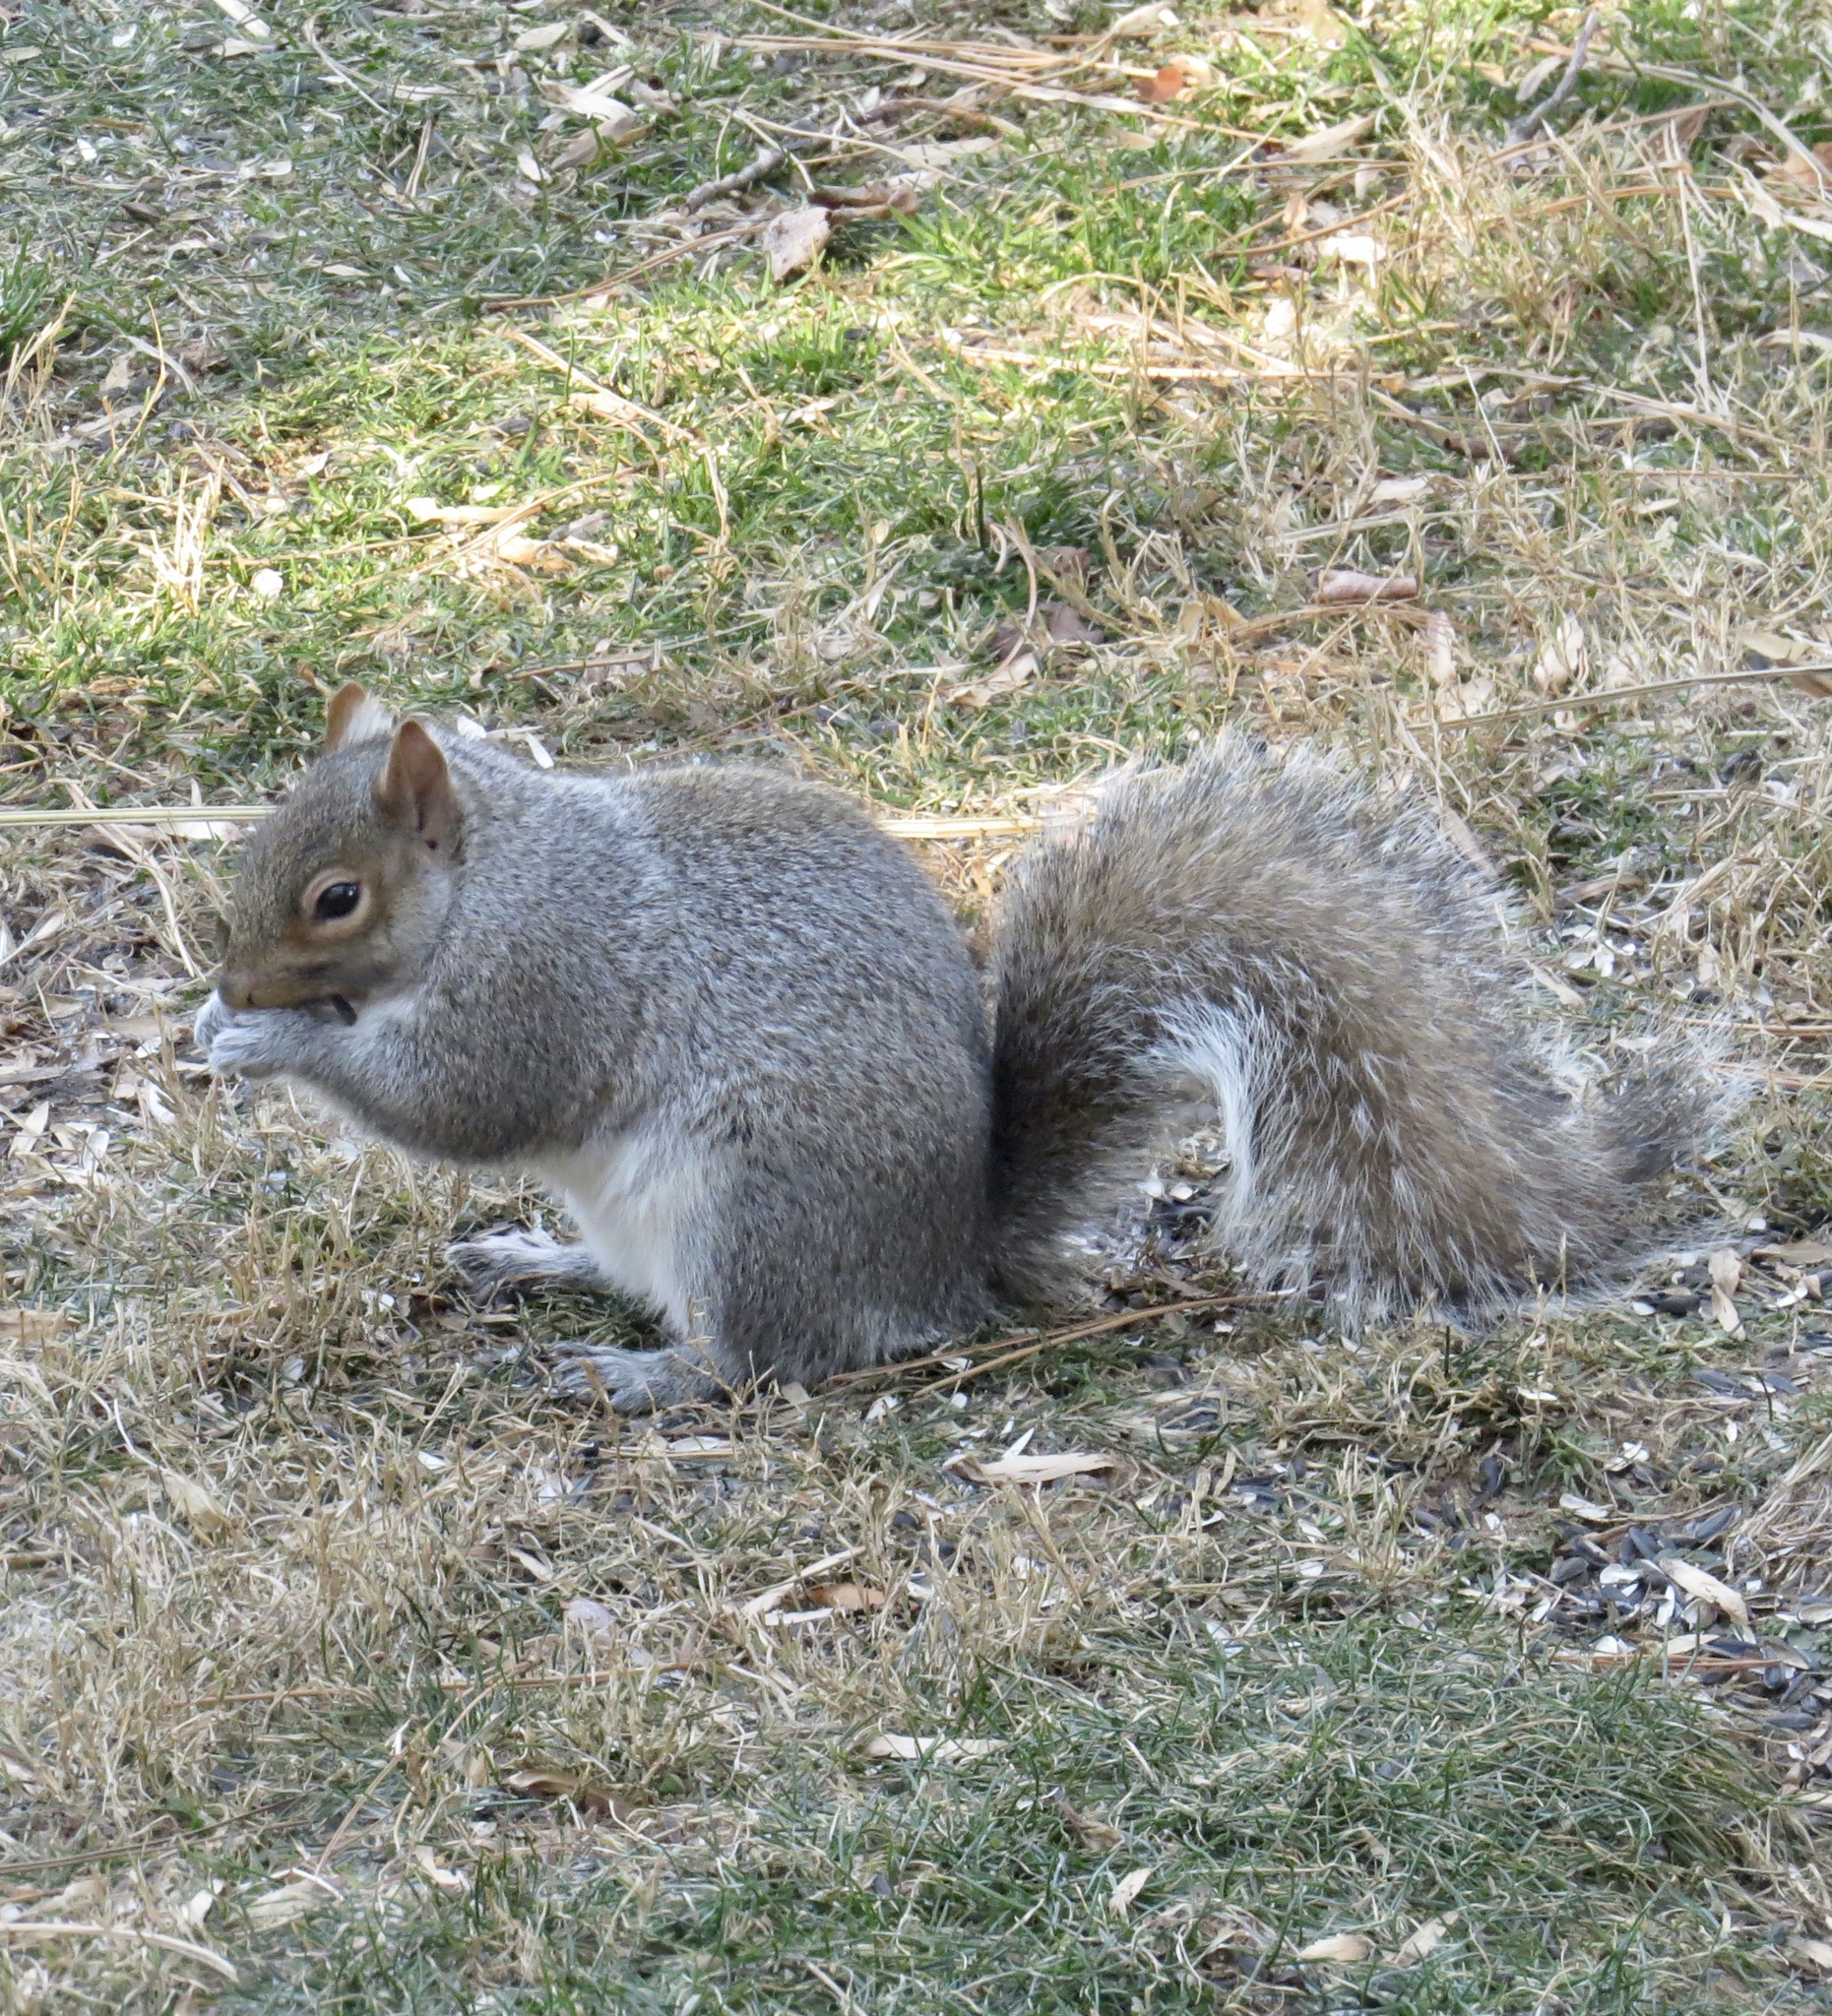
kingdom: Animalia
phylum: Chordata
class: Mammalia
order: Rodentia
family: Sciuridae
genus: Sciurus
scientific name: Sciurus carolinensis
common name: Eastern gray squirrel
